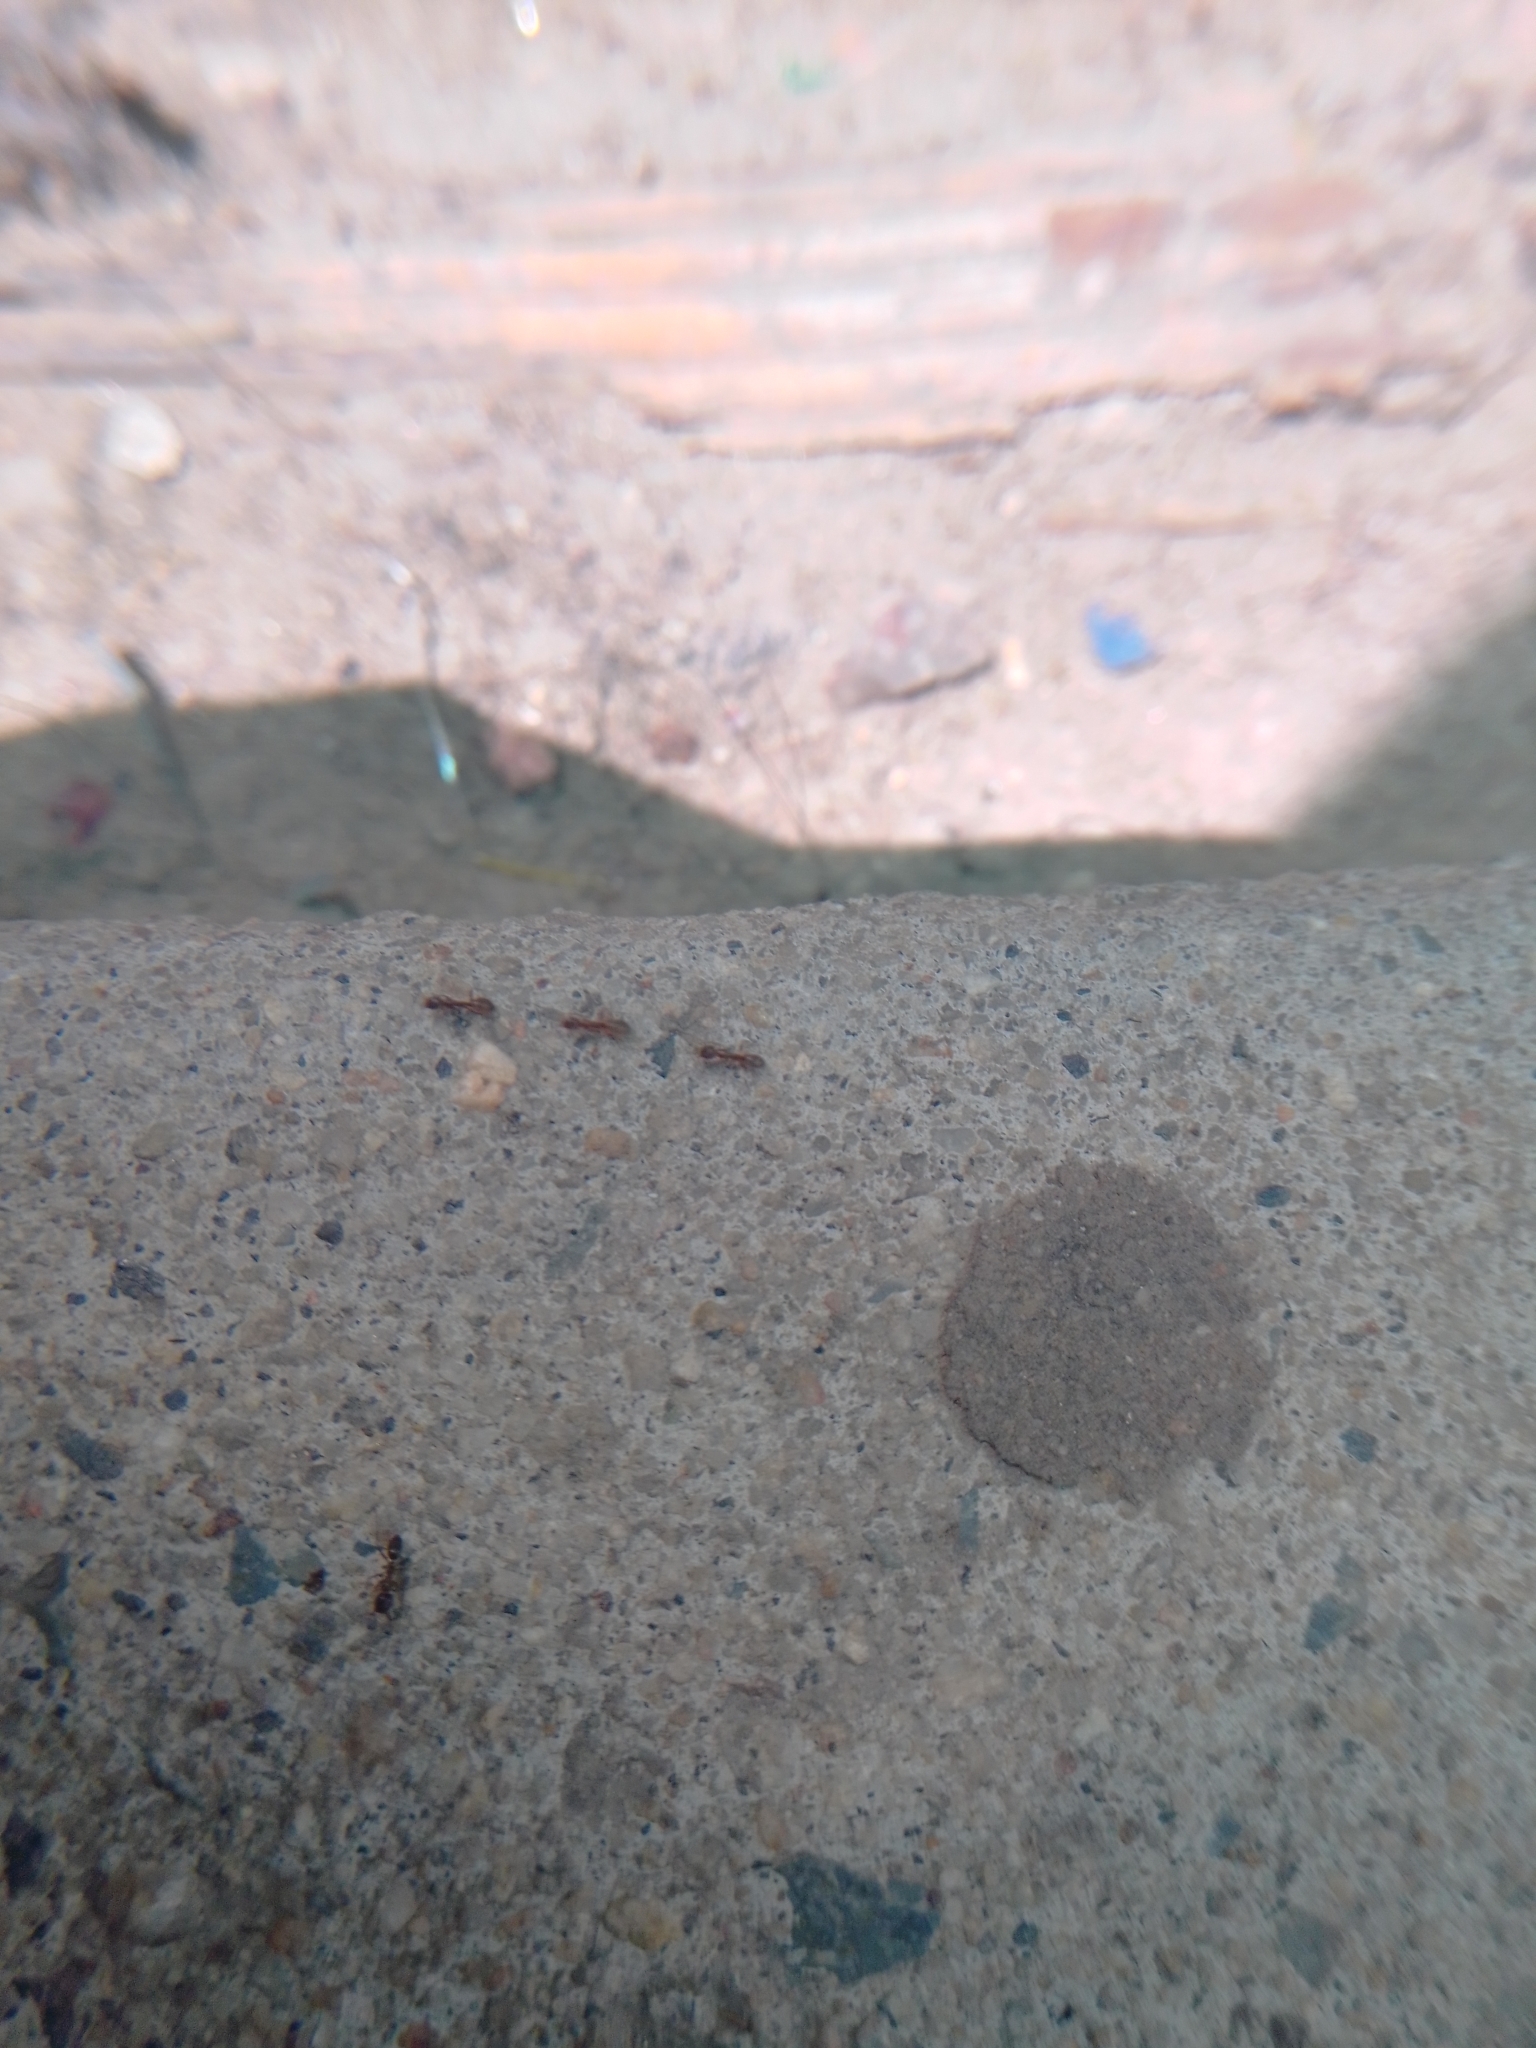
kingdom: Animalia
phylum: Arthropoda
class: Insecta
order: Hymenoptera
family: Formicidae
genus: Linepithema
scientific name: Linepithema humile
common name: Argentine ant
